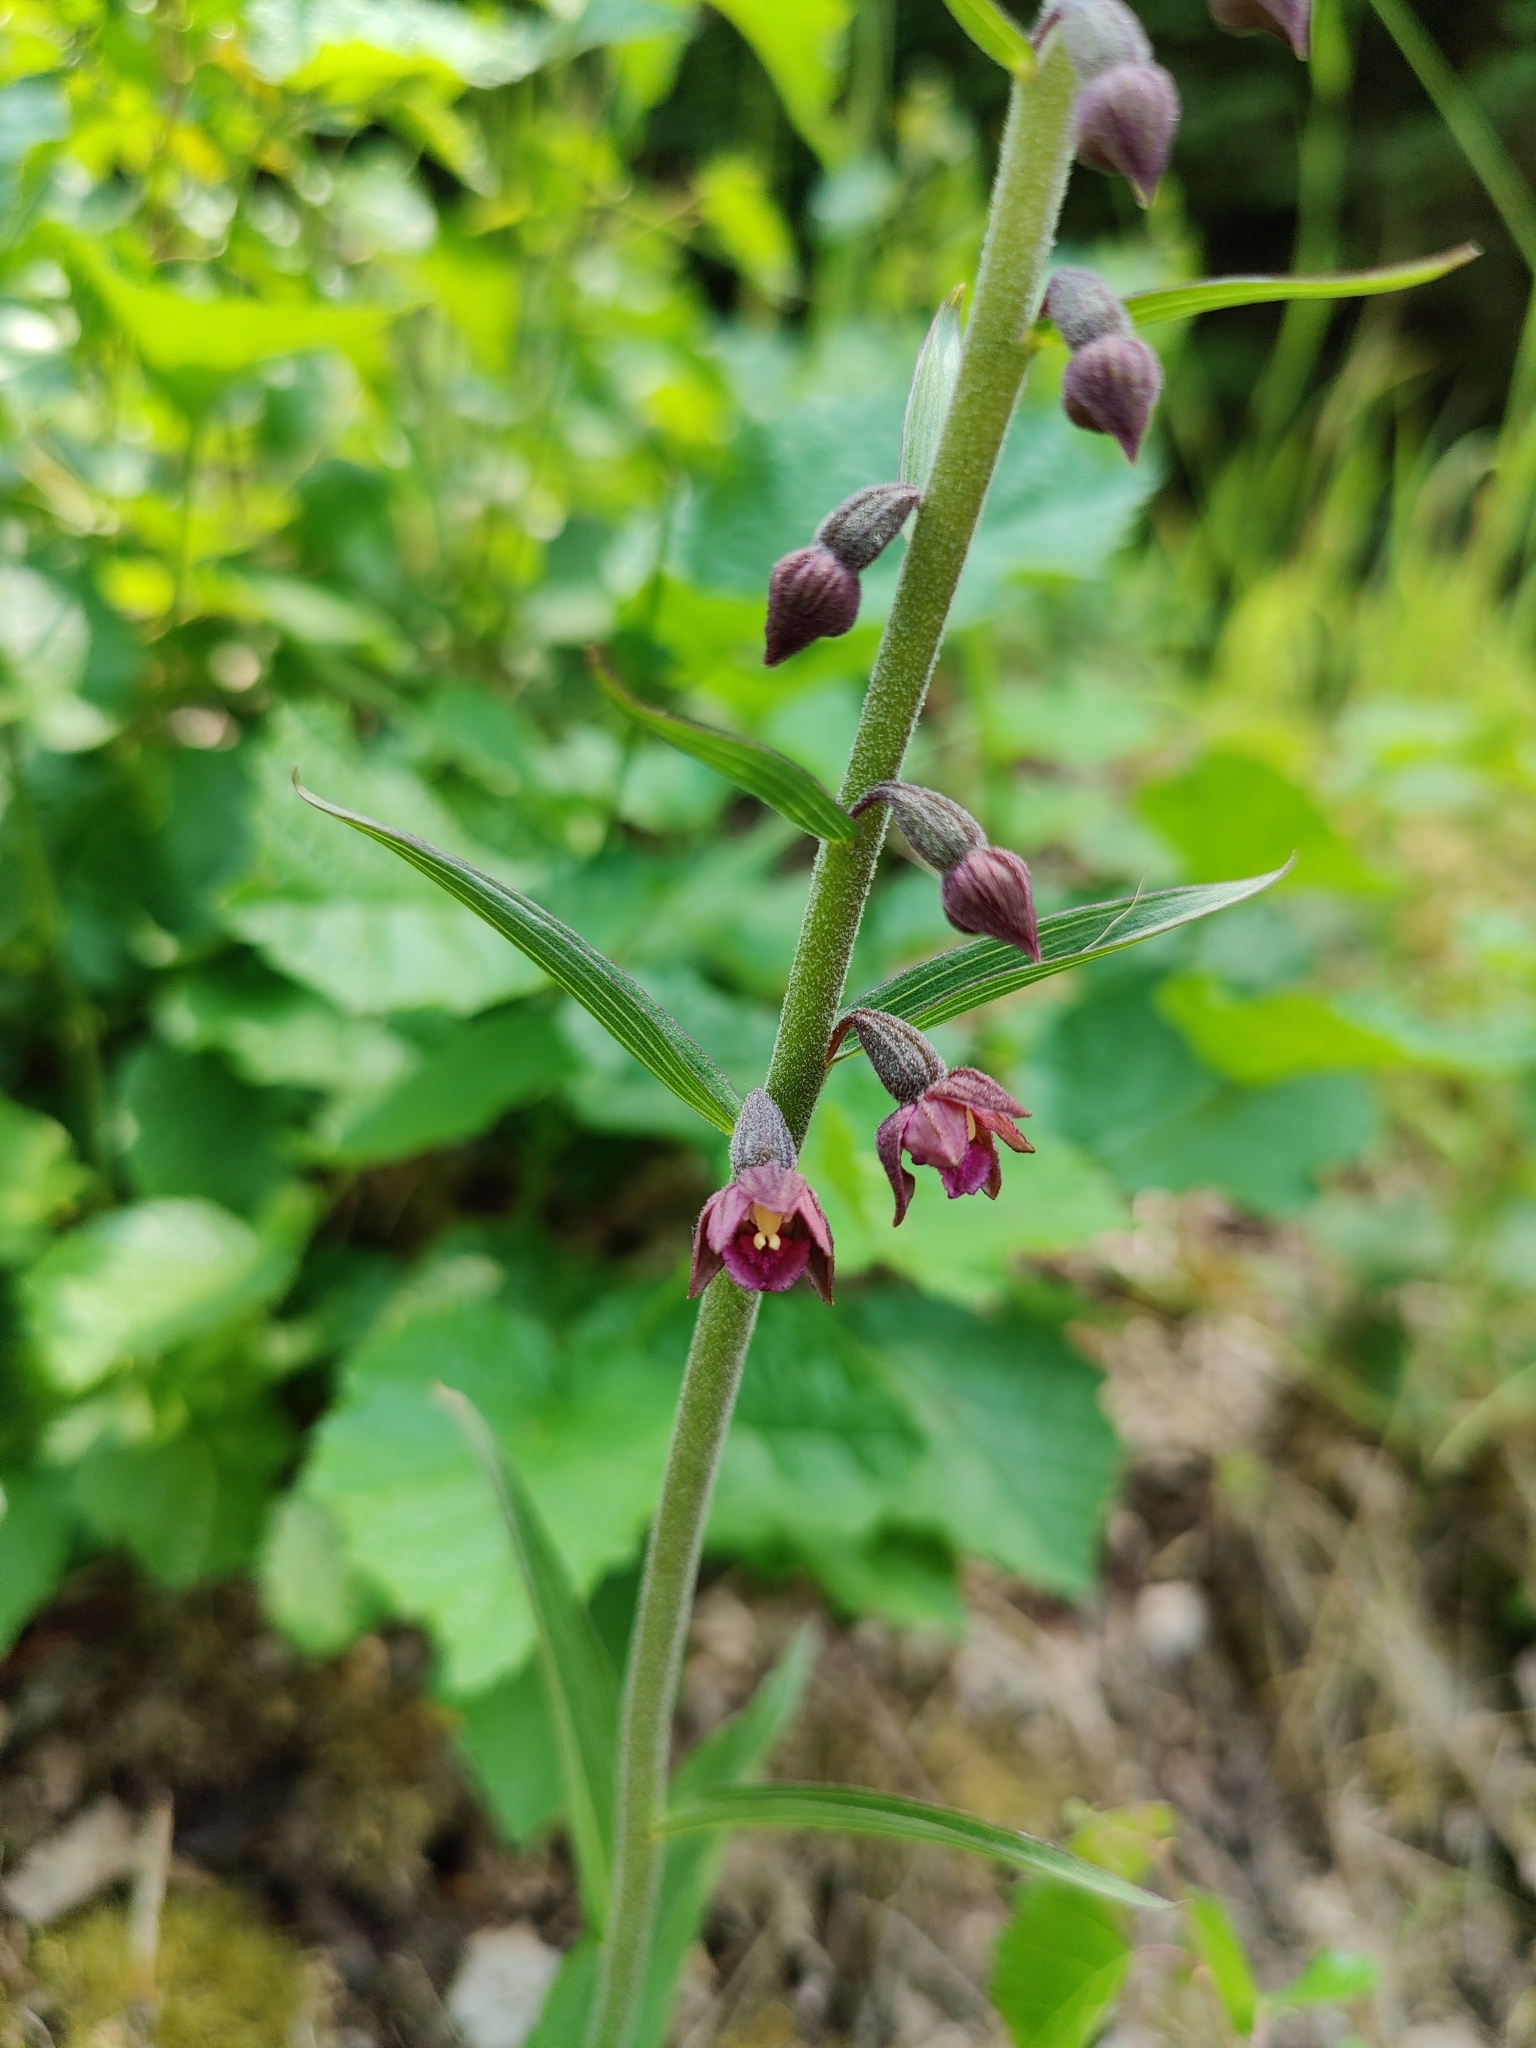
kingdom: Plantae
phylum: Tracheophyta
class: Liliopsida
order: Asparagales
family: Orchidaceae
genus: Epipactis
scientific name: Epipactis atrorubens
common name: Dark-red helleborine
